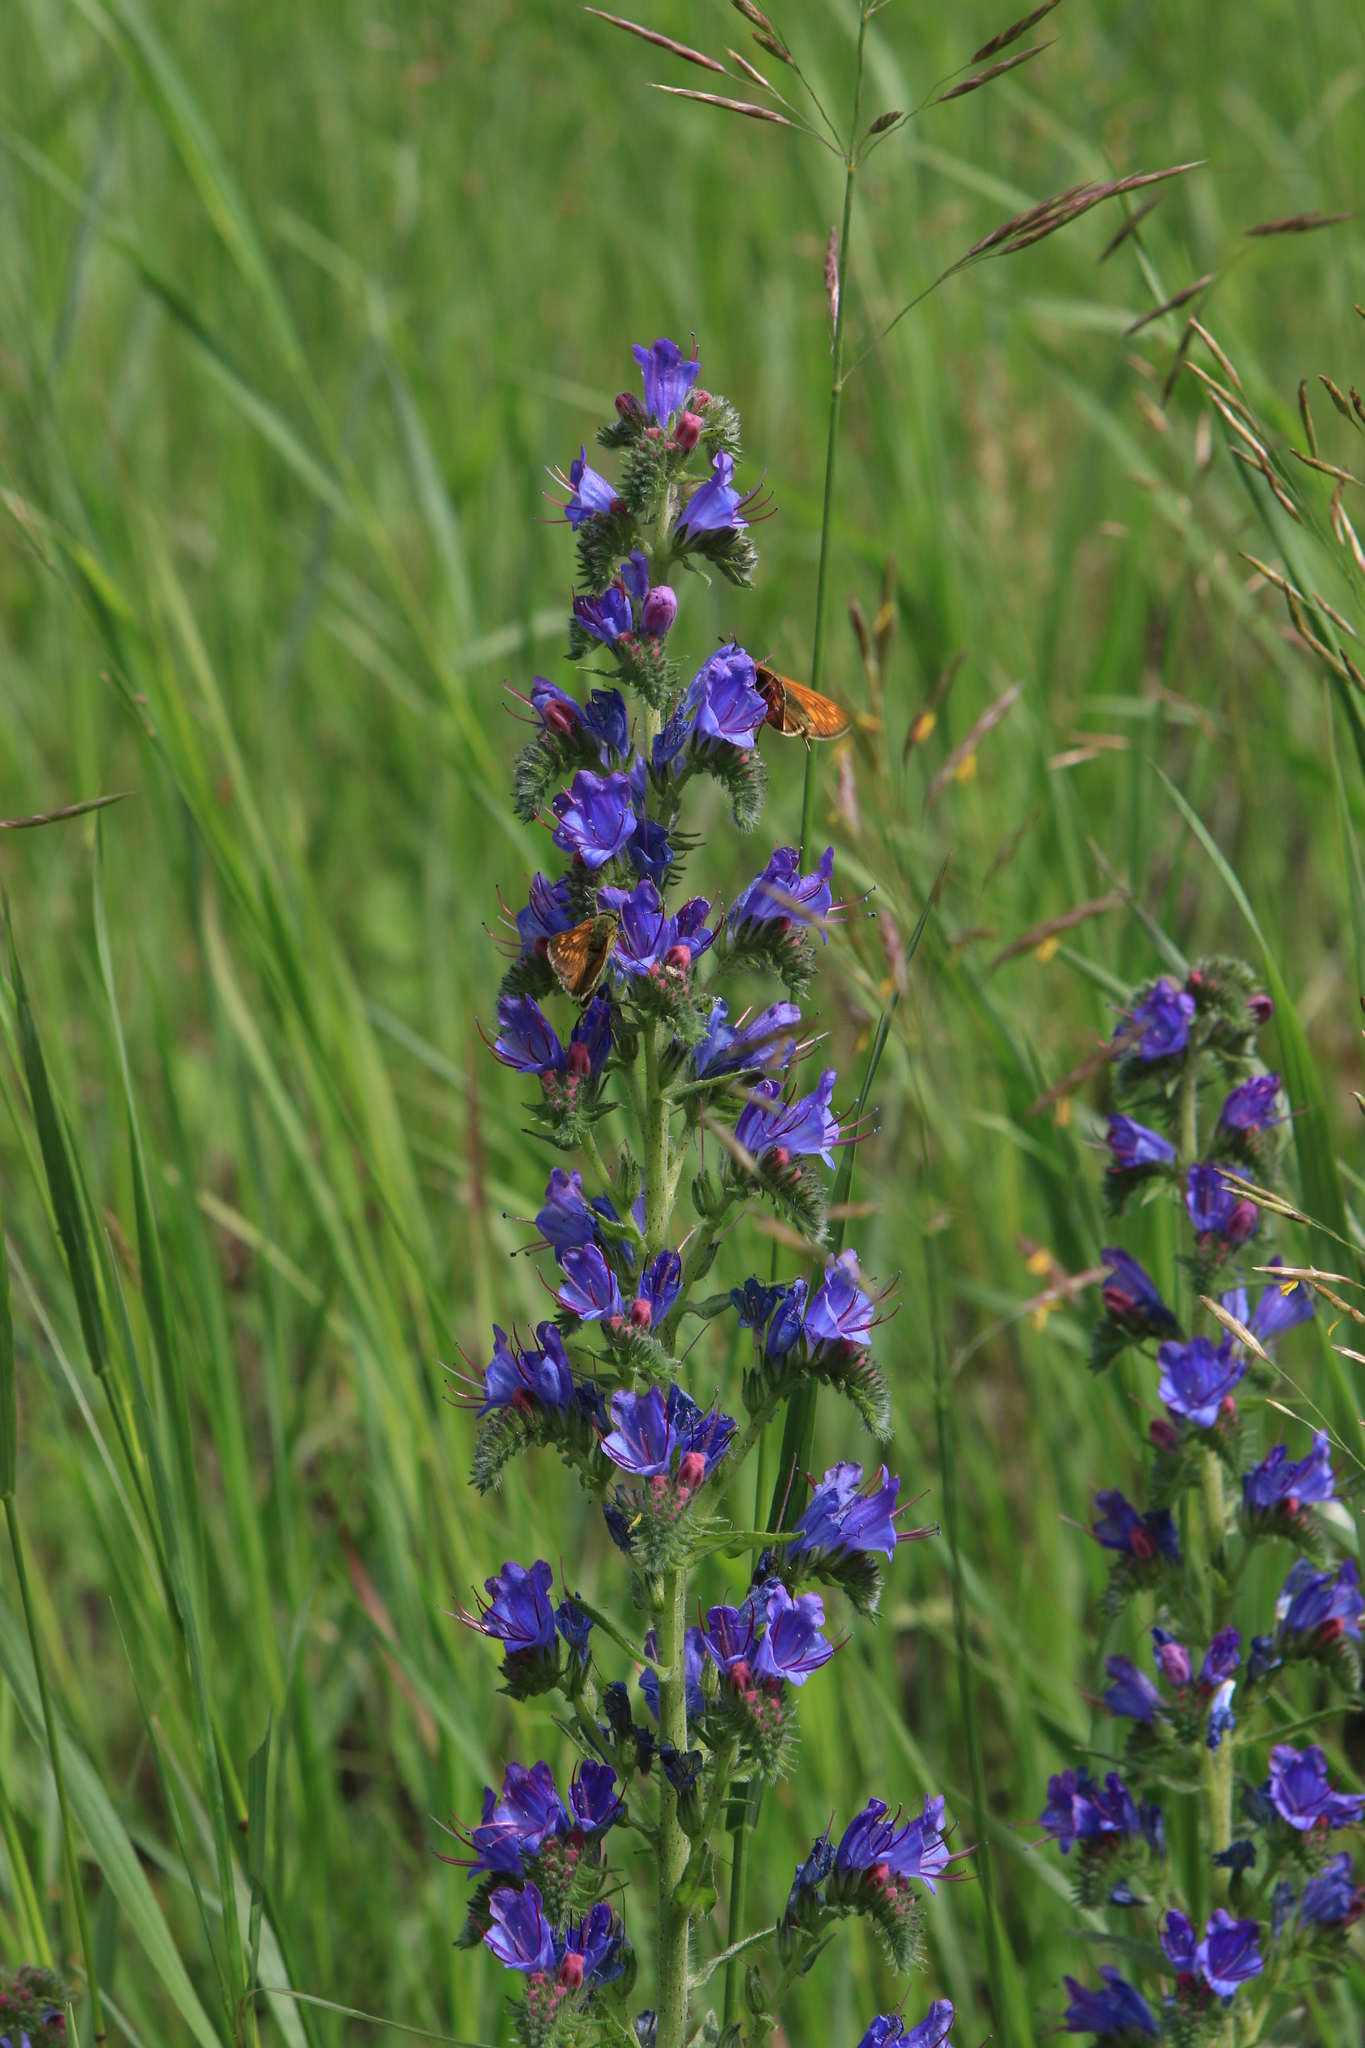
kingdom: Plantae
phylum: Tracheophyta
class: Magnoliopsida
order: Boraginales
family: Boraginaceae
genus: Echium
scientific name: Echium vulgare
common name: Common viper's bugloss
